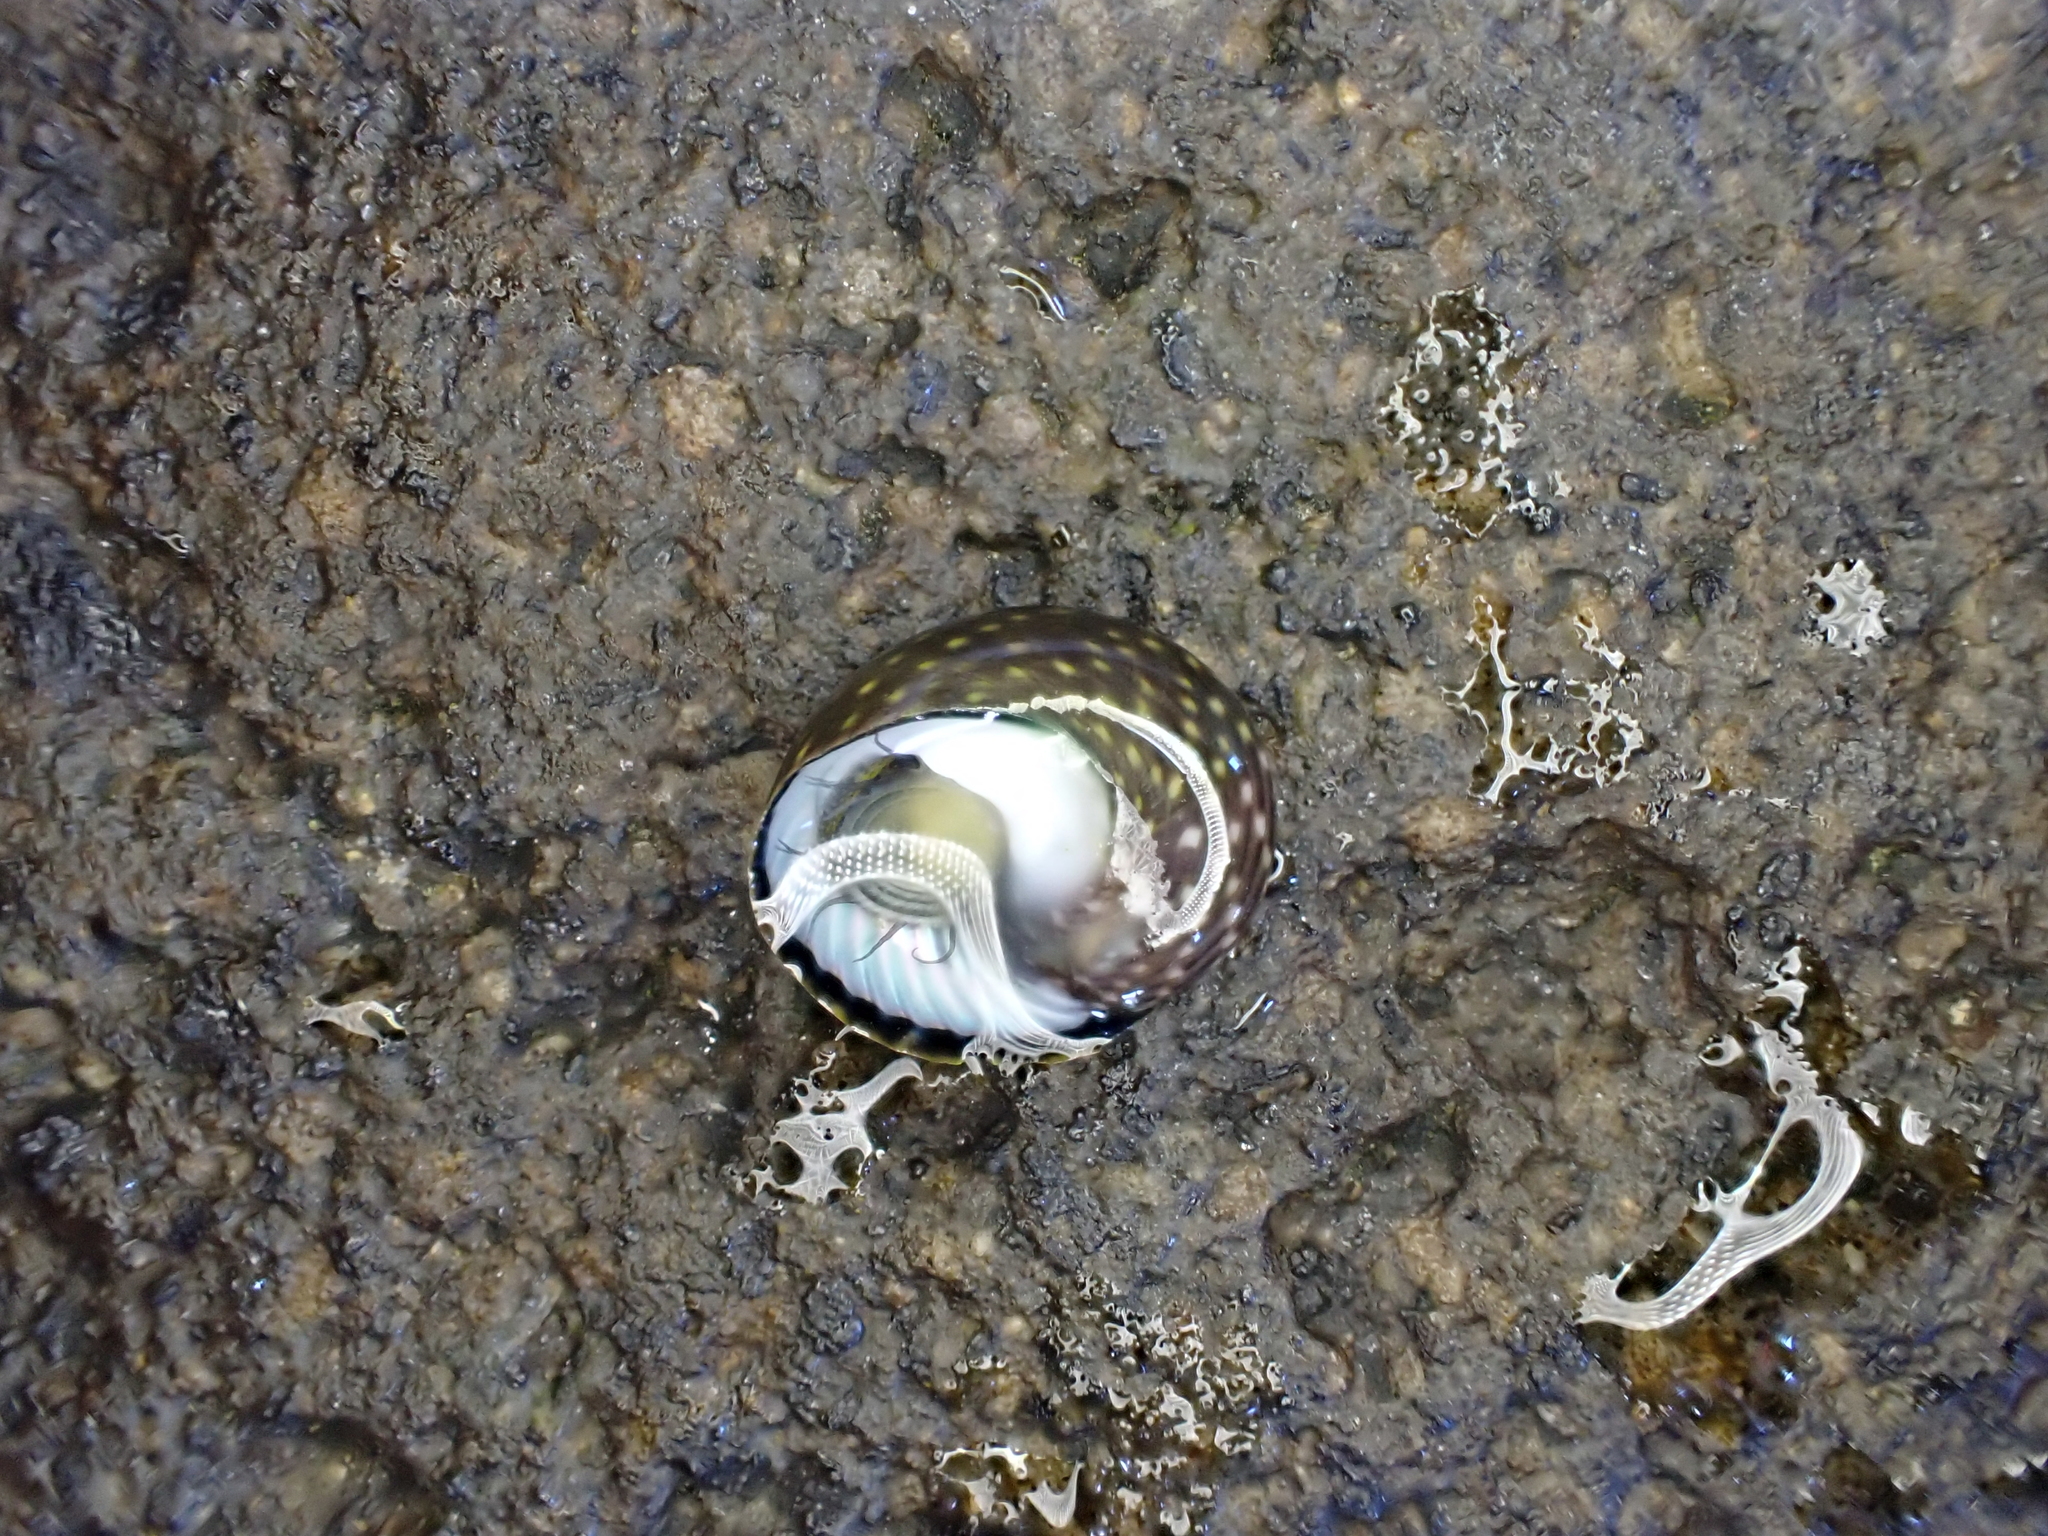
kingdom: Animalia
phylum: Mollusca
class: Gastropoda
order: Trochida
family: Trochidae
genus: Diloma
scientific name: Diloma aridum
